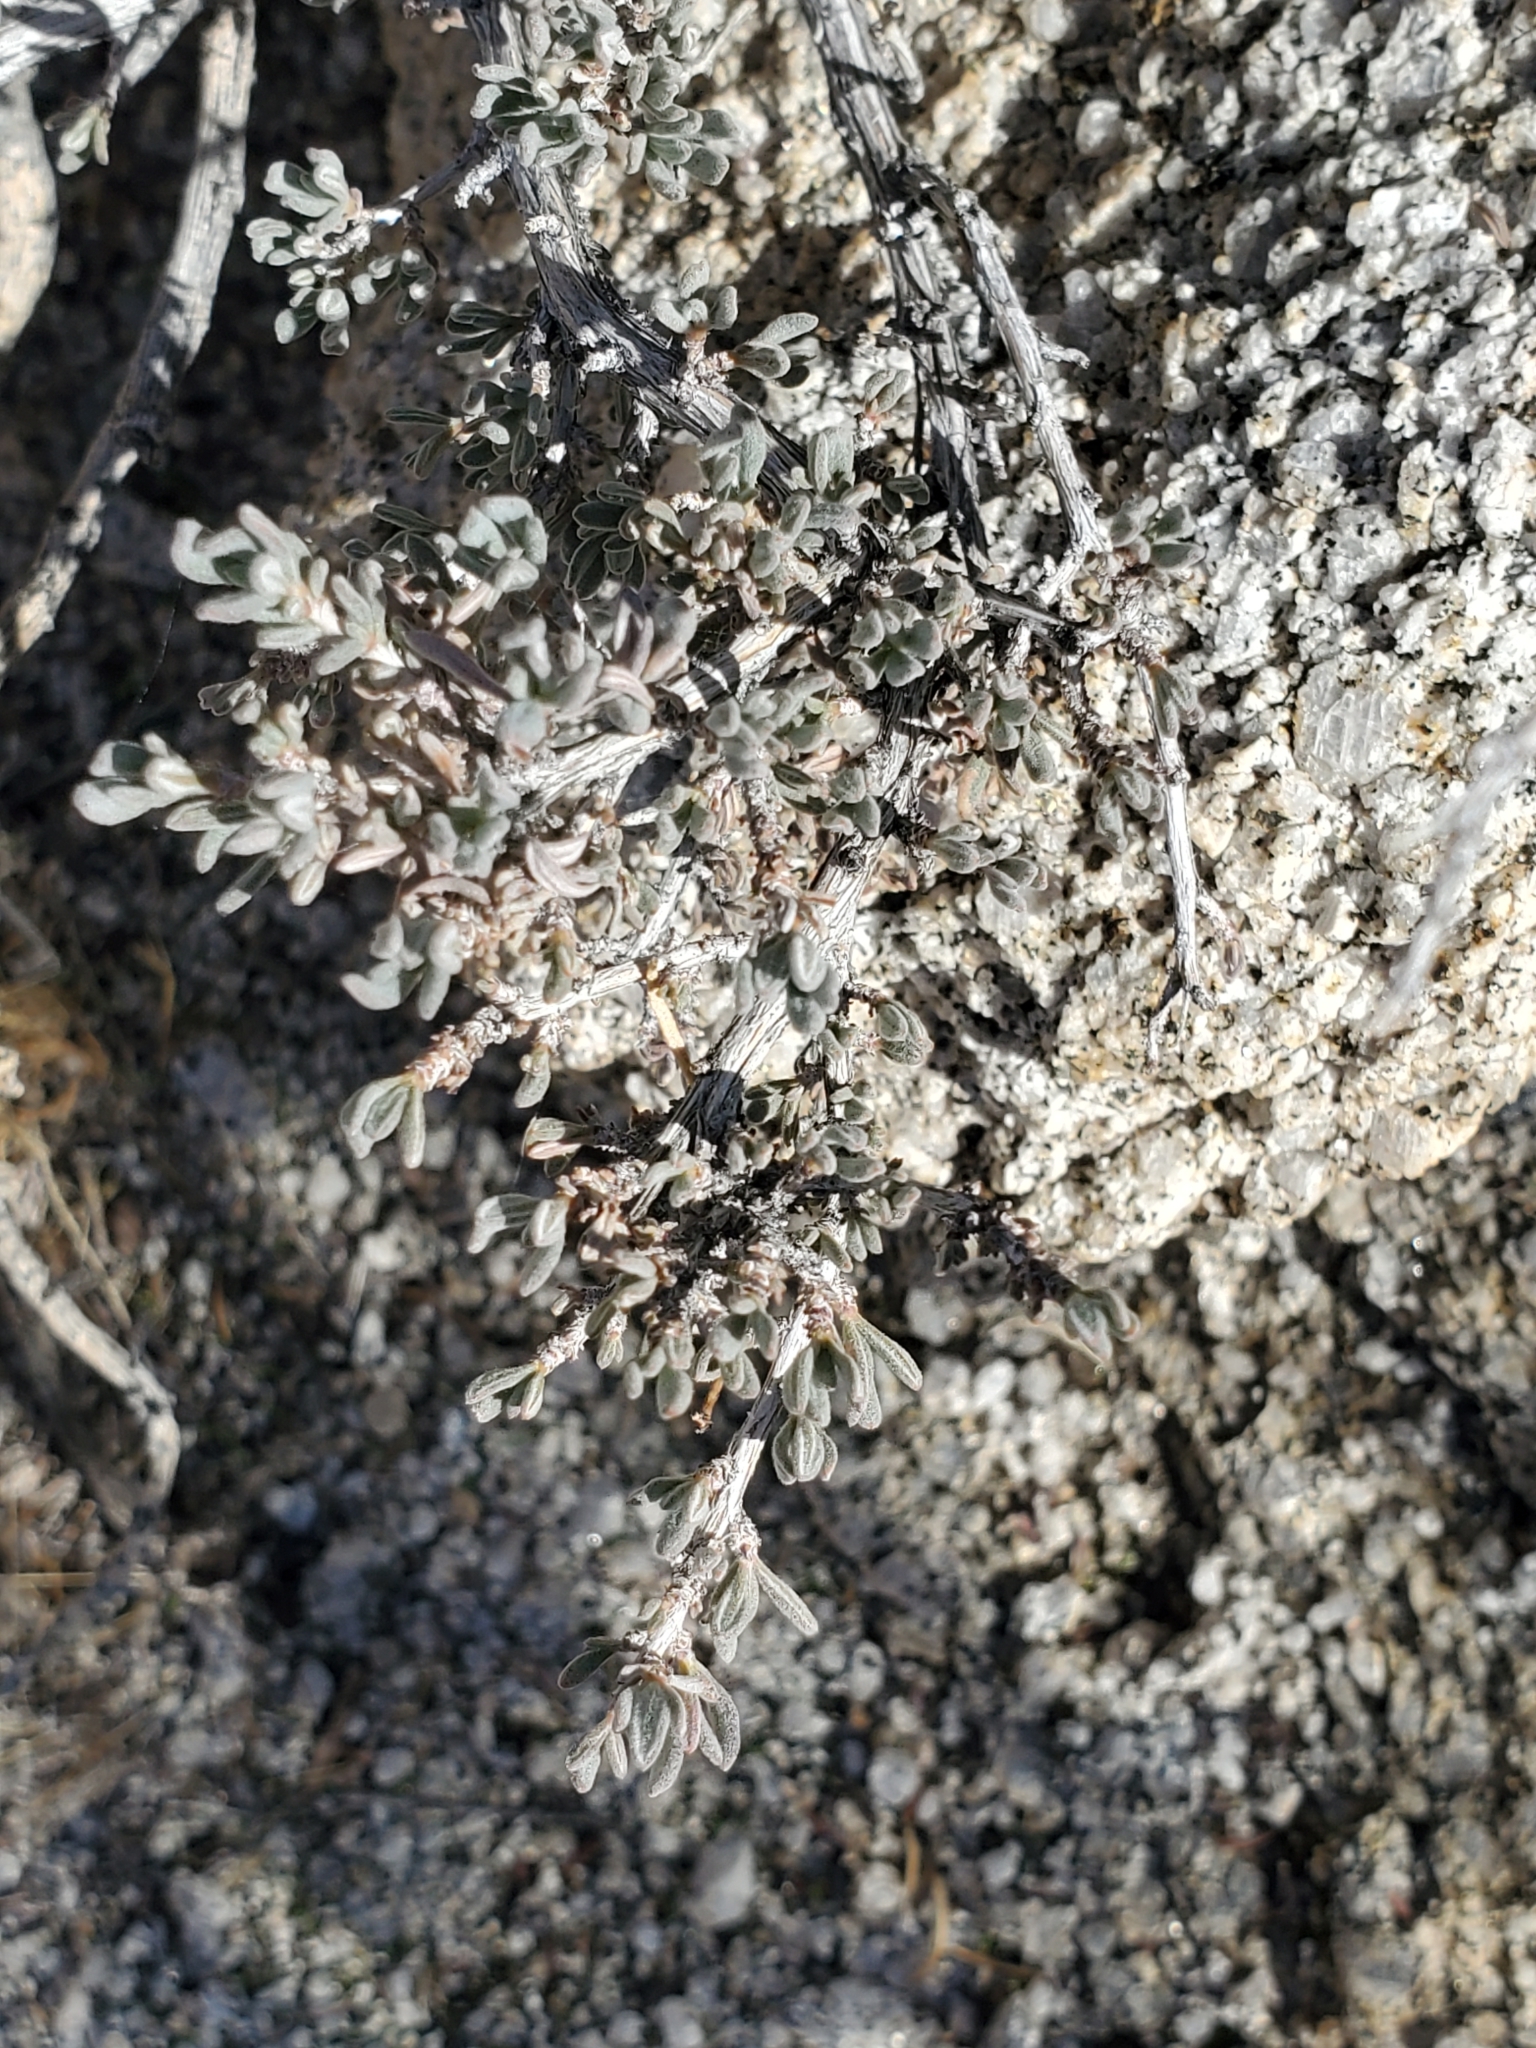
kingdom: Plantae
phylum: Tracheophyta
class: Magnoliopsida
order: Caryophyllales
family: Polygonaceae
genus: Eriogonum
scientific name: Eriogonum fasciculatum
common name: California wild buckwheat
